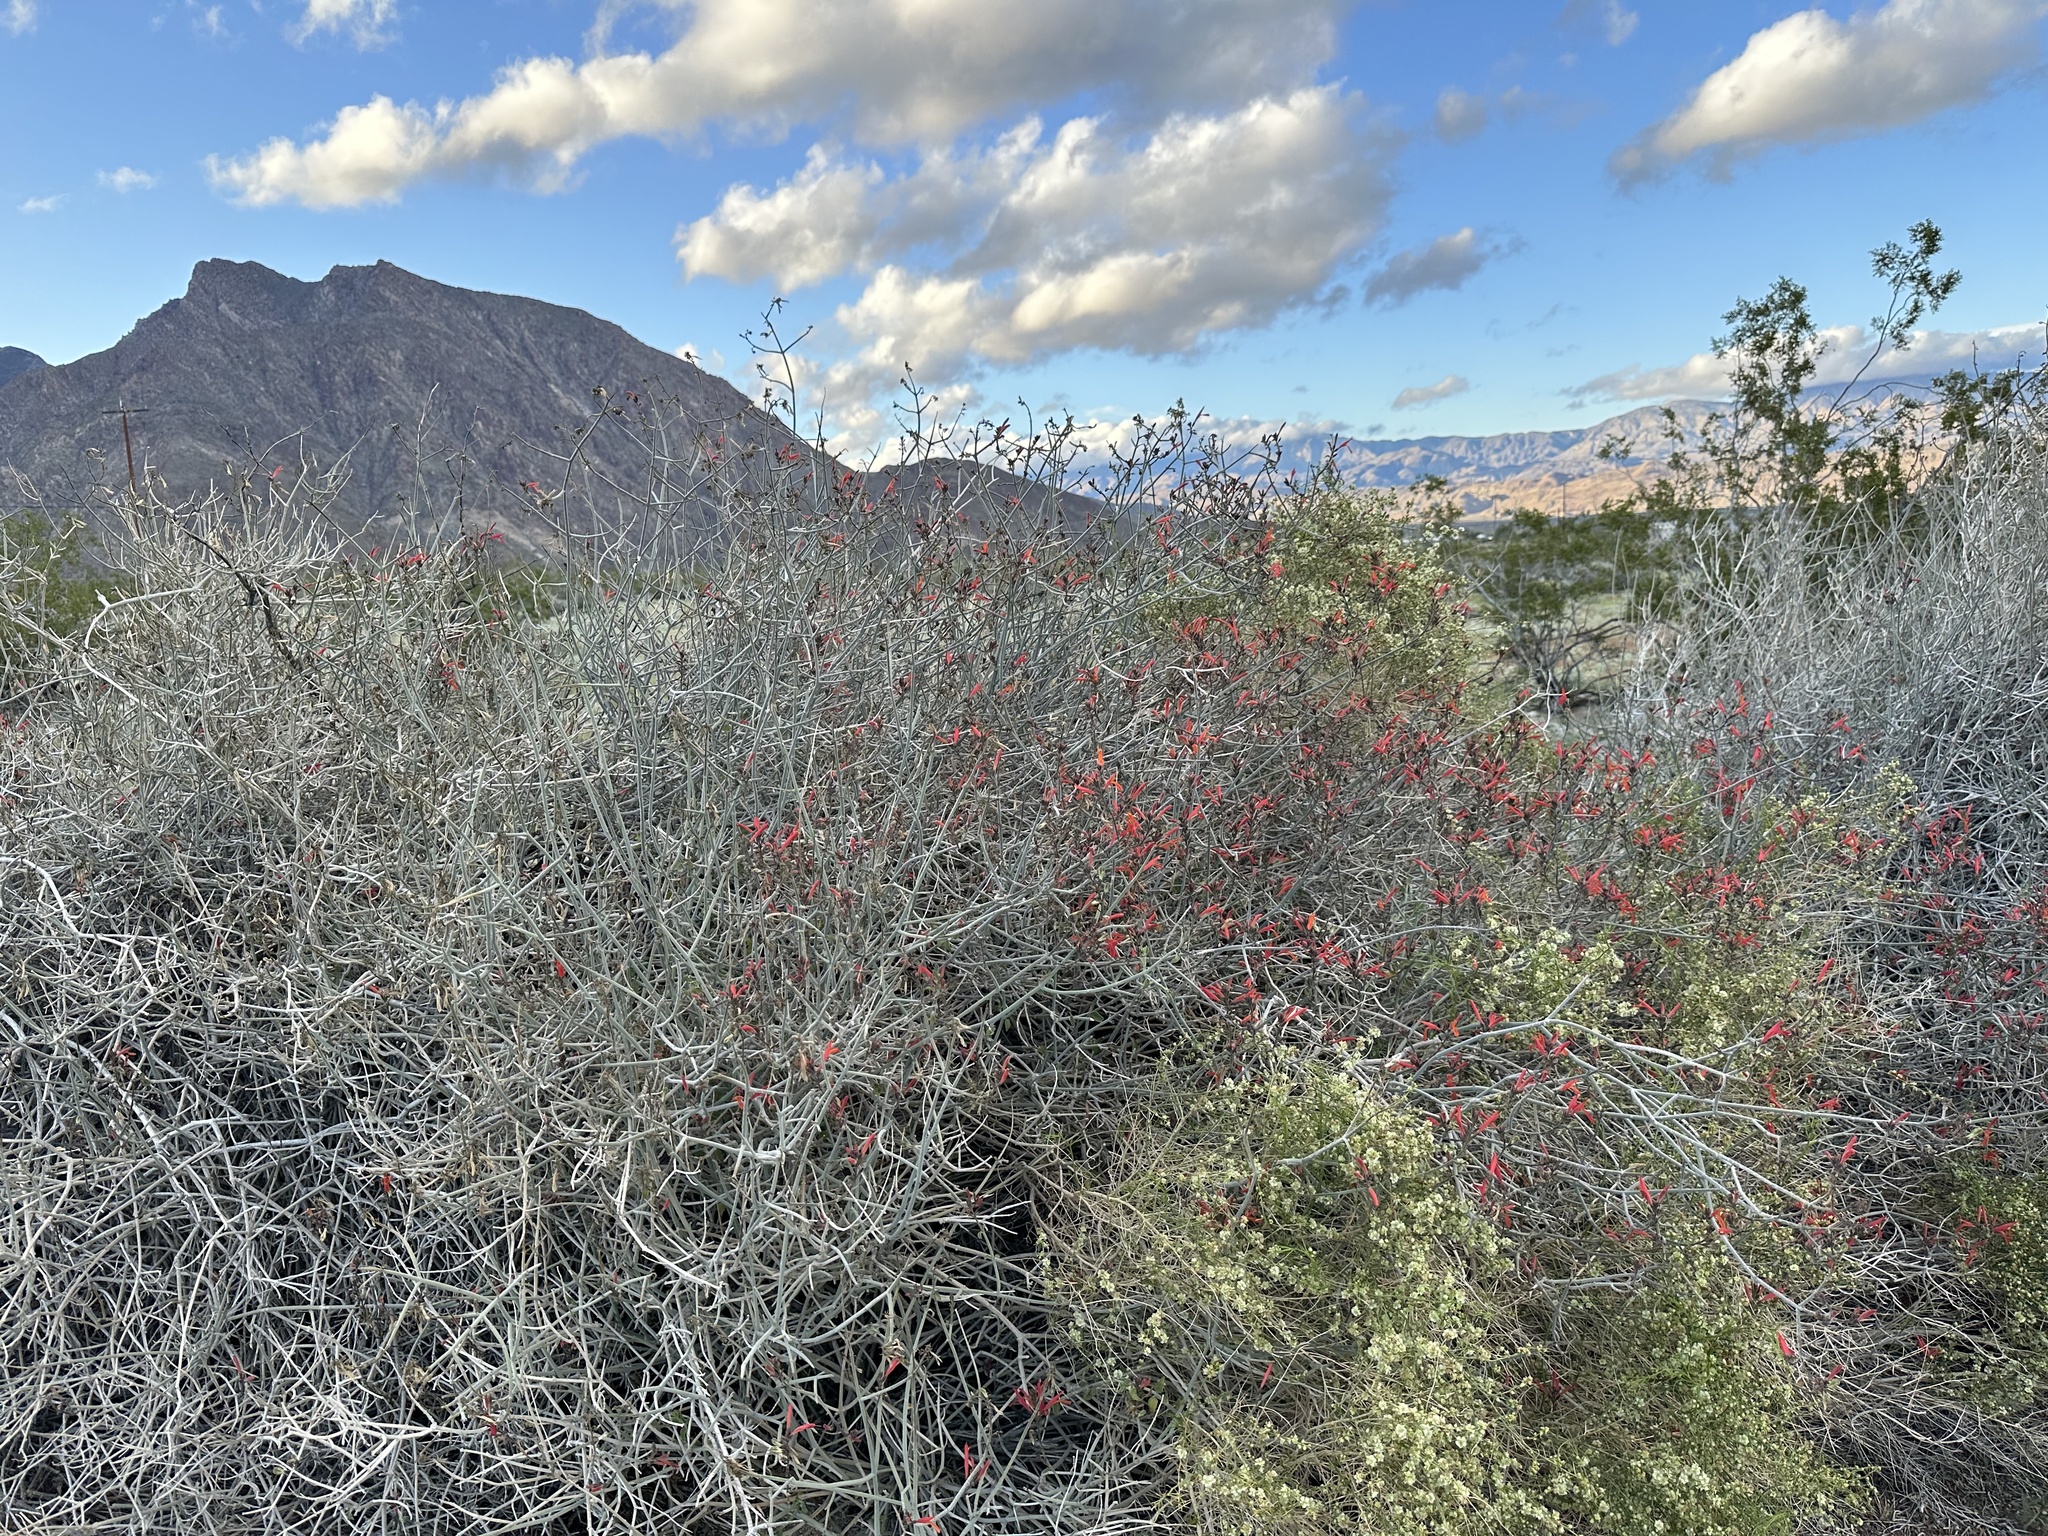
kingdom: Plantae
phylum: Tracheophyta
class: Magnoliopsida
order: Lamiales
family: Acanthaceae
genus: Justicia
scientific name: Justicia californica
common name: Chuparosa-honeysuckle
